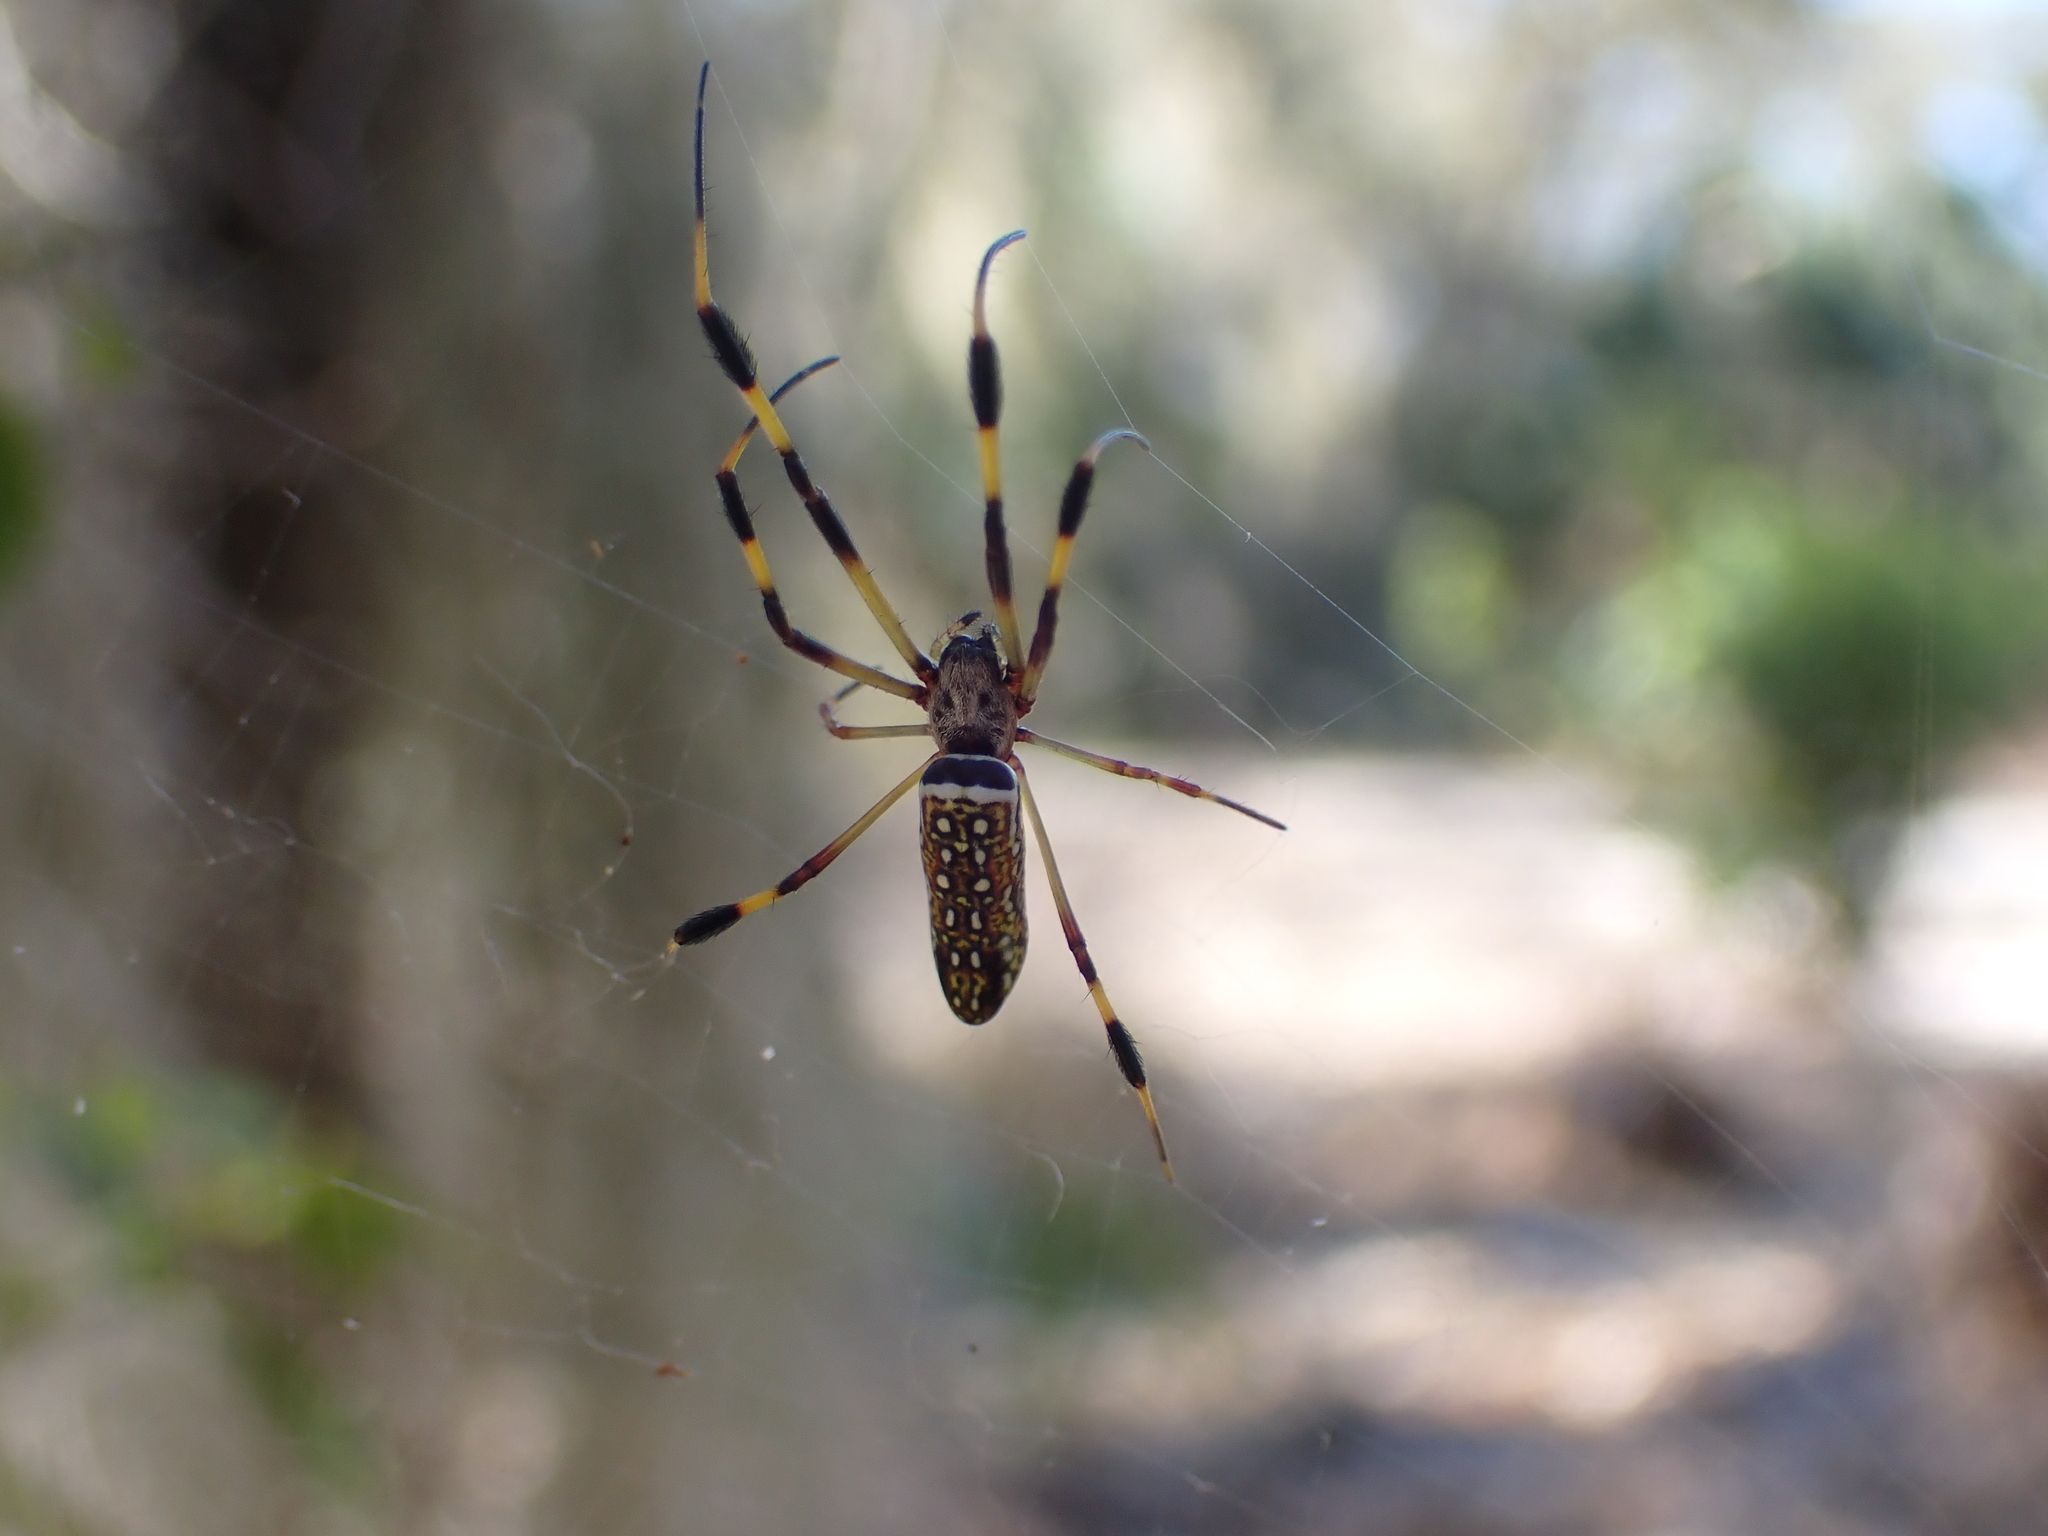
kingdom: Animalia
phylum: Arthropoda
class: Arachnida
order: Araneae
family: Araneidae
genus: Trichonephila
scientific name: Trichonephila clavipes
